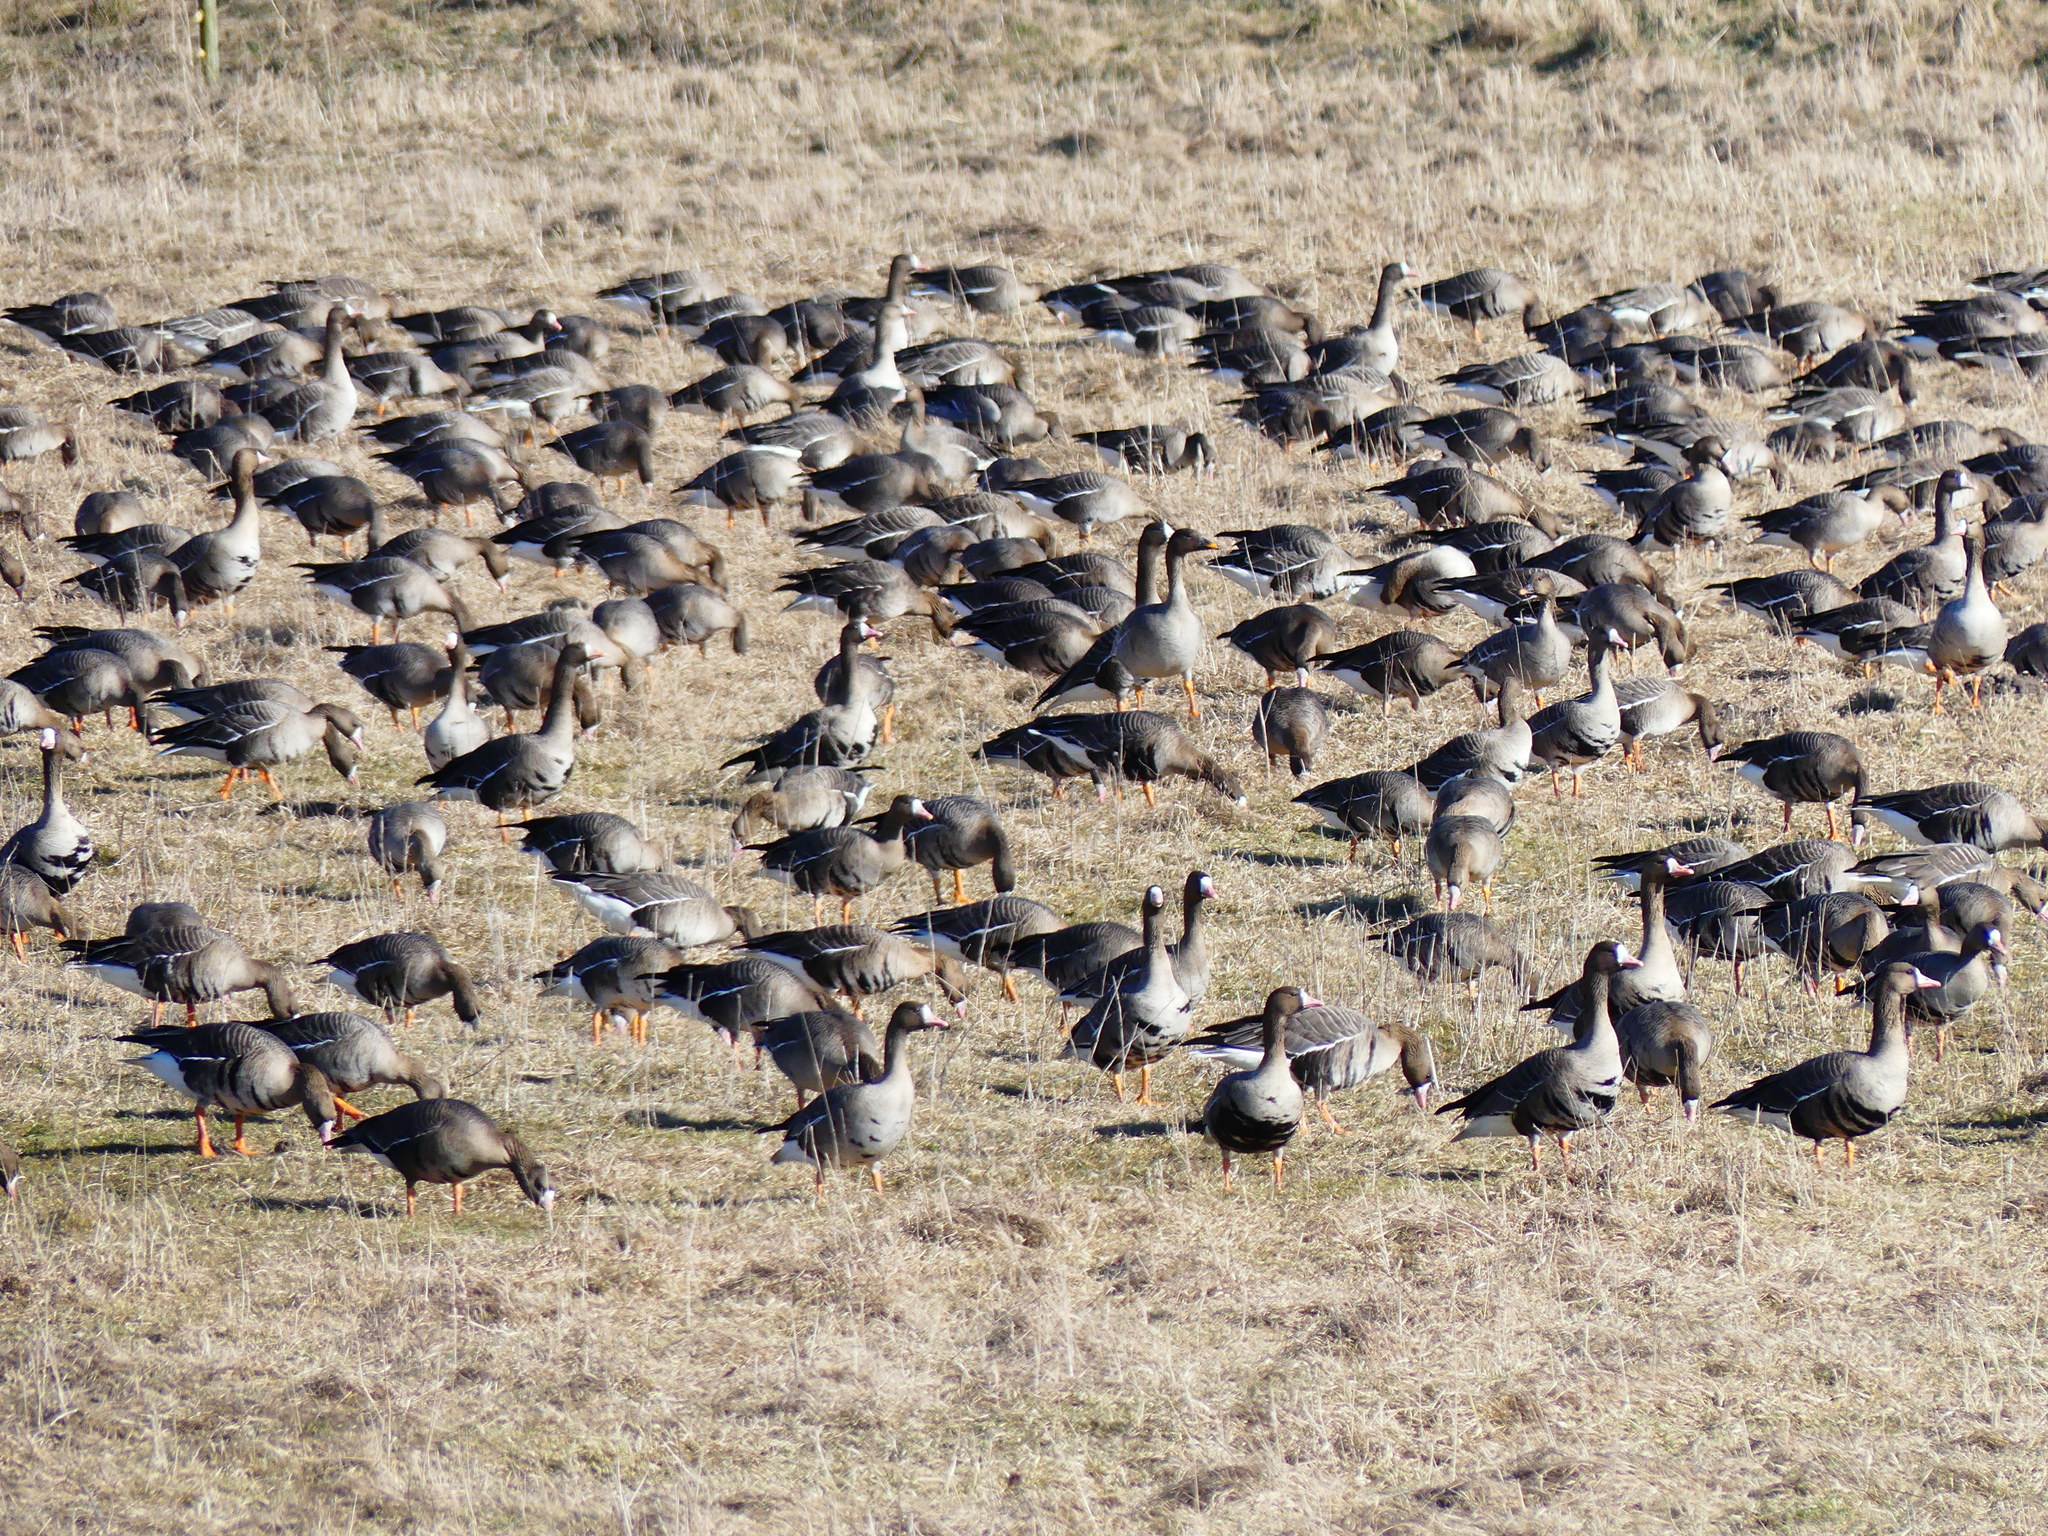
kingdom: Animalia
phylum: Chordata
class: Aves
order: Anseriformes
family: Anatidae
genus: Anser
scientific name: Anser serrirostris
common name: Tundra bean goose
